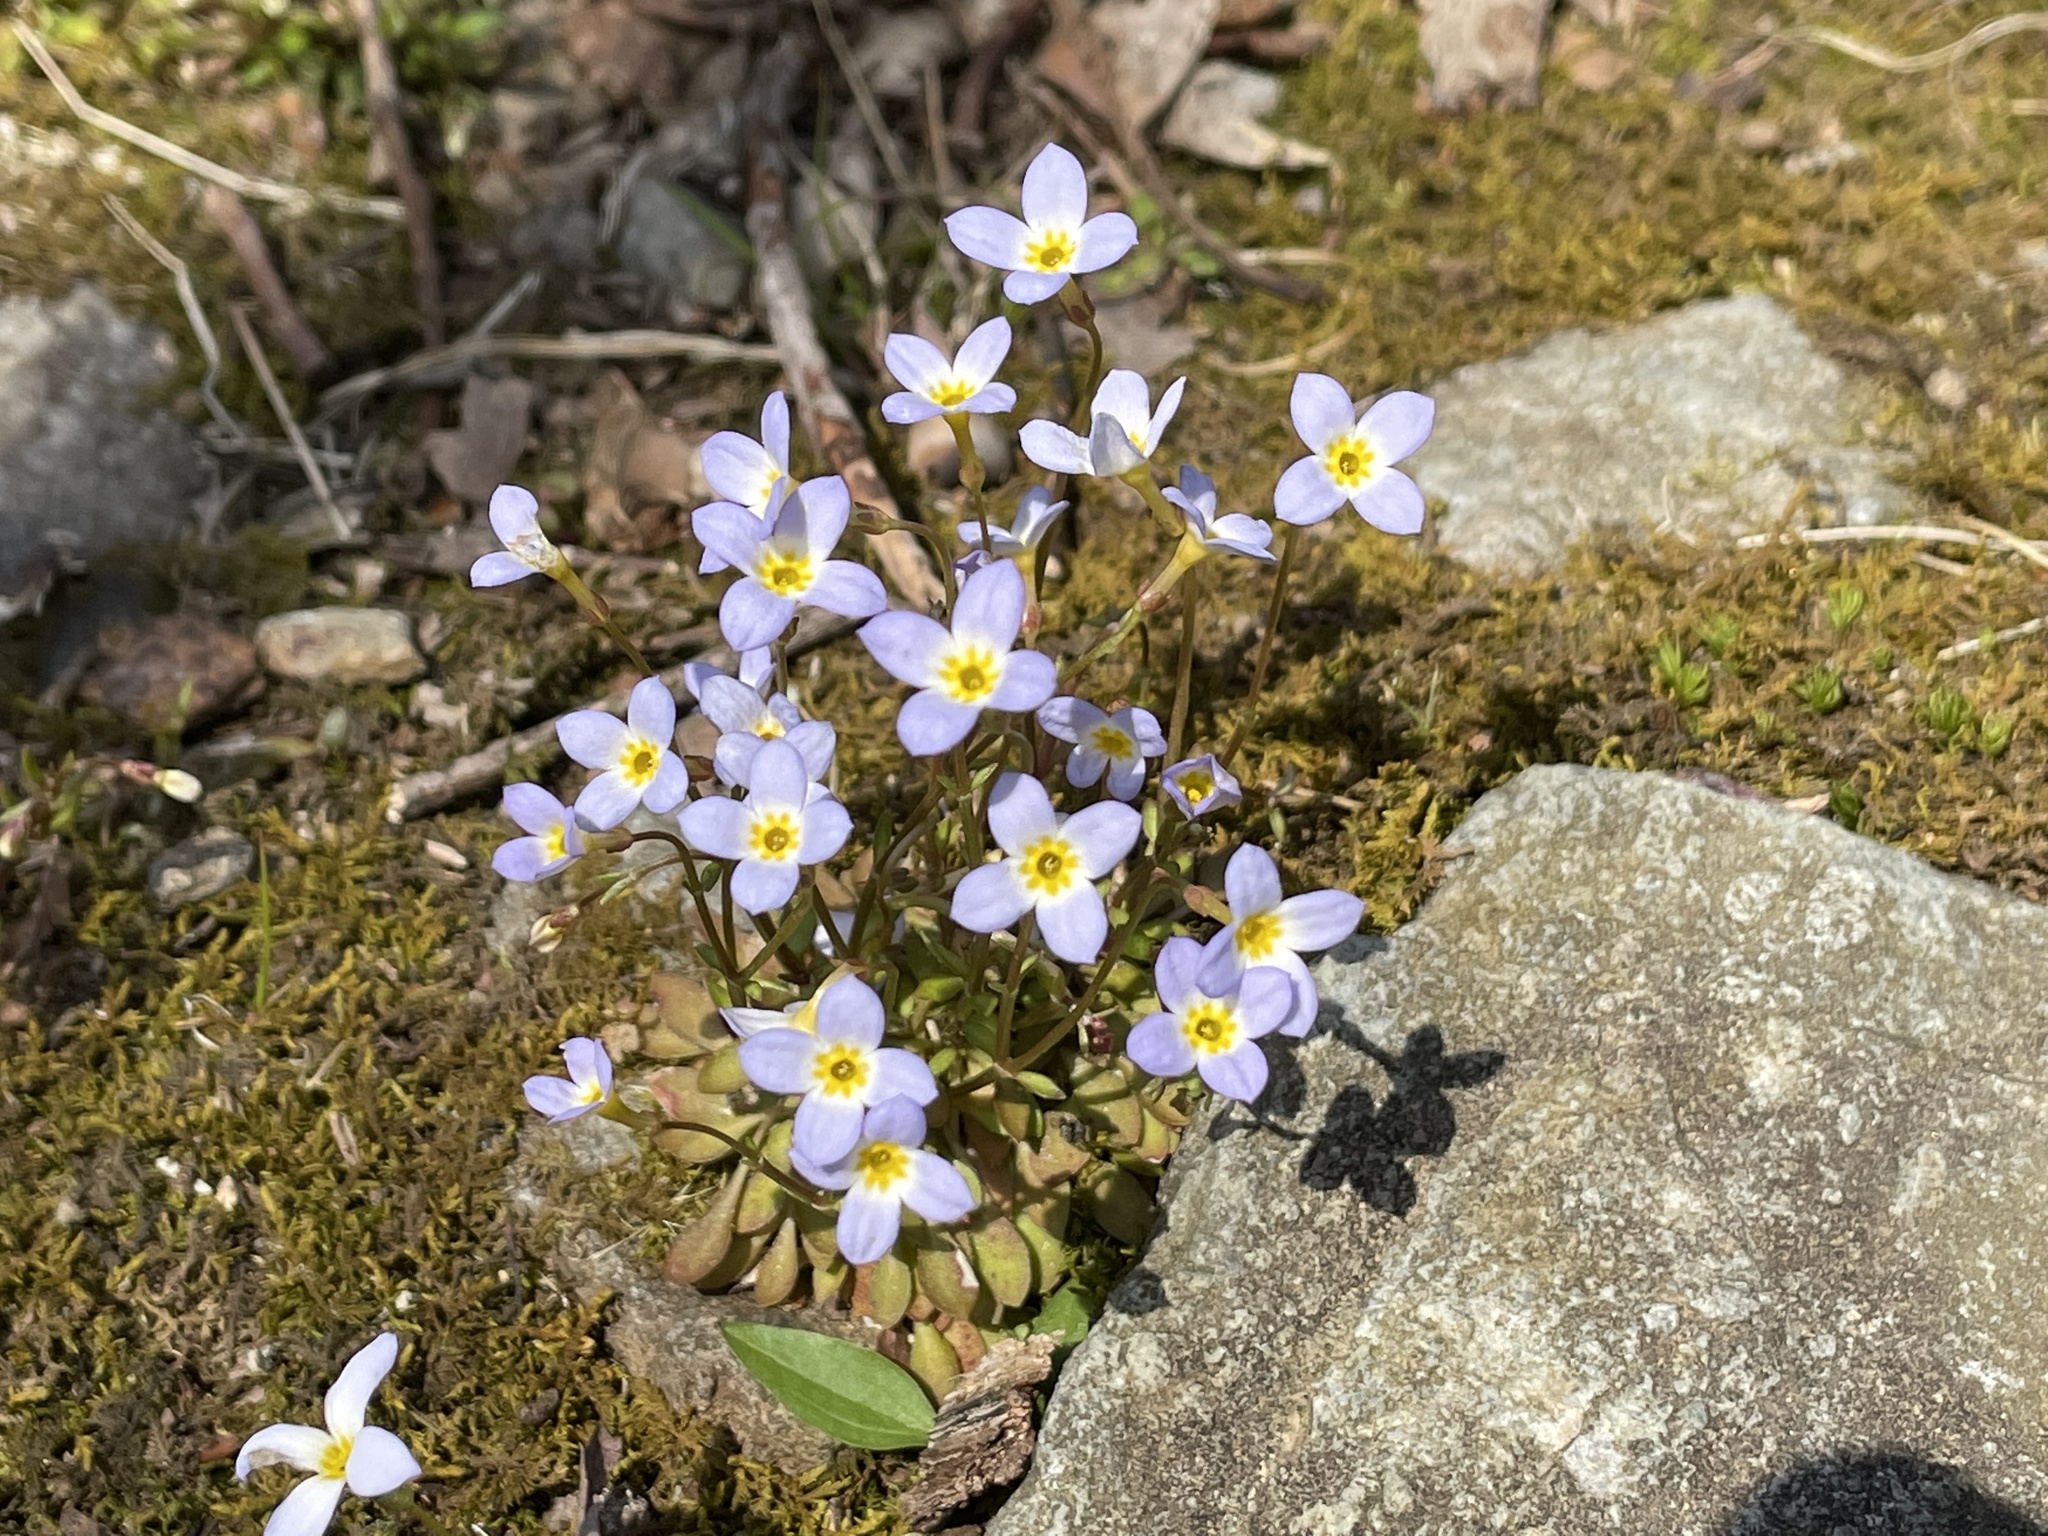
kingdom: Plantae
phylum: Tracheophyta
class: Magnoliopsida
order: Gentianales
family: Rubiaceae
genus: Houstonia
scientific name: Houstonia caerulea
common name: Bluets
